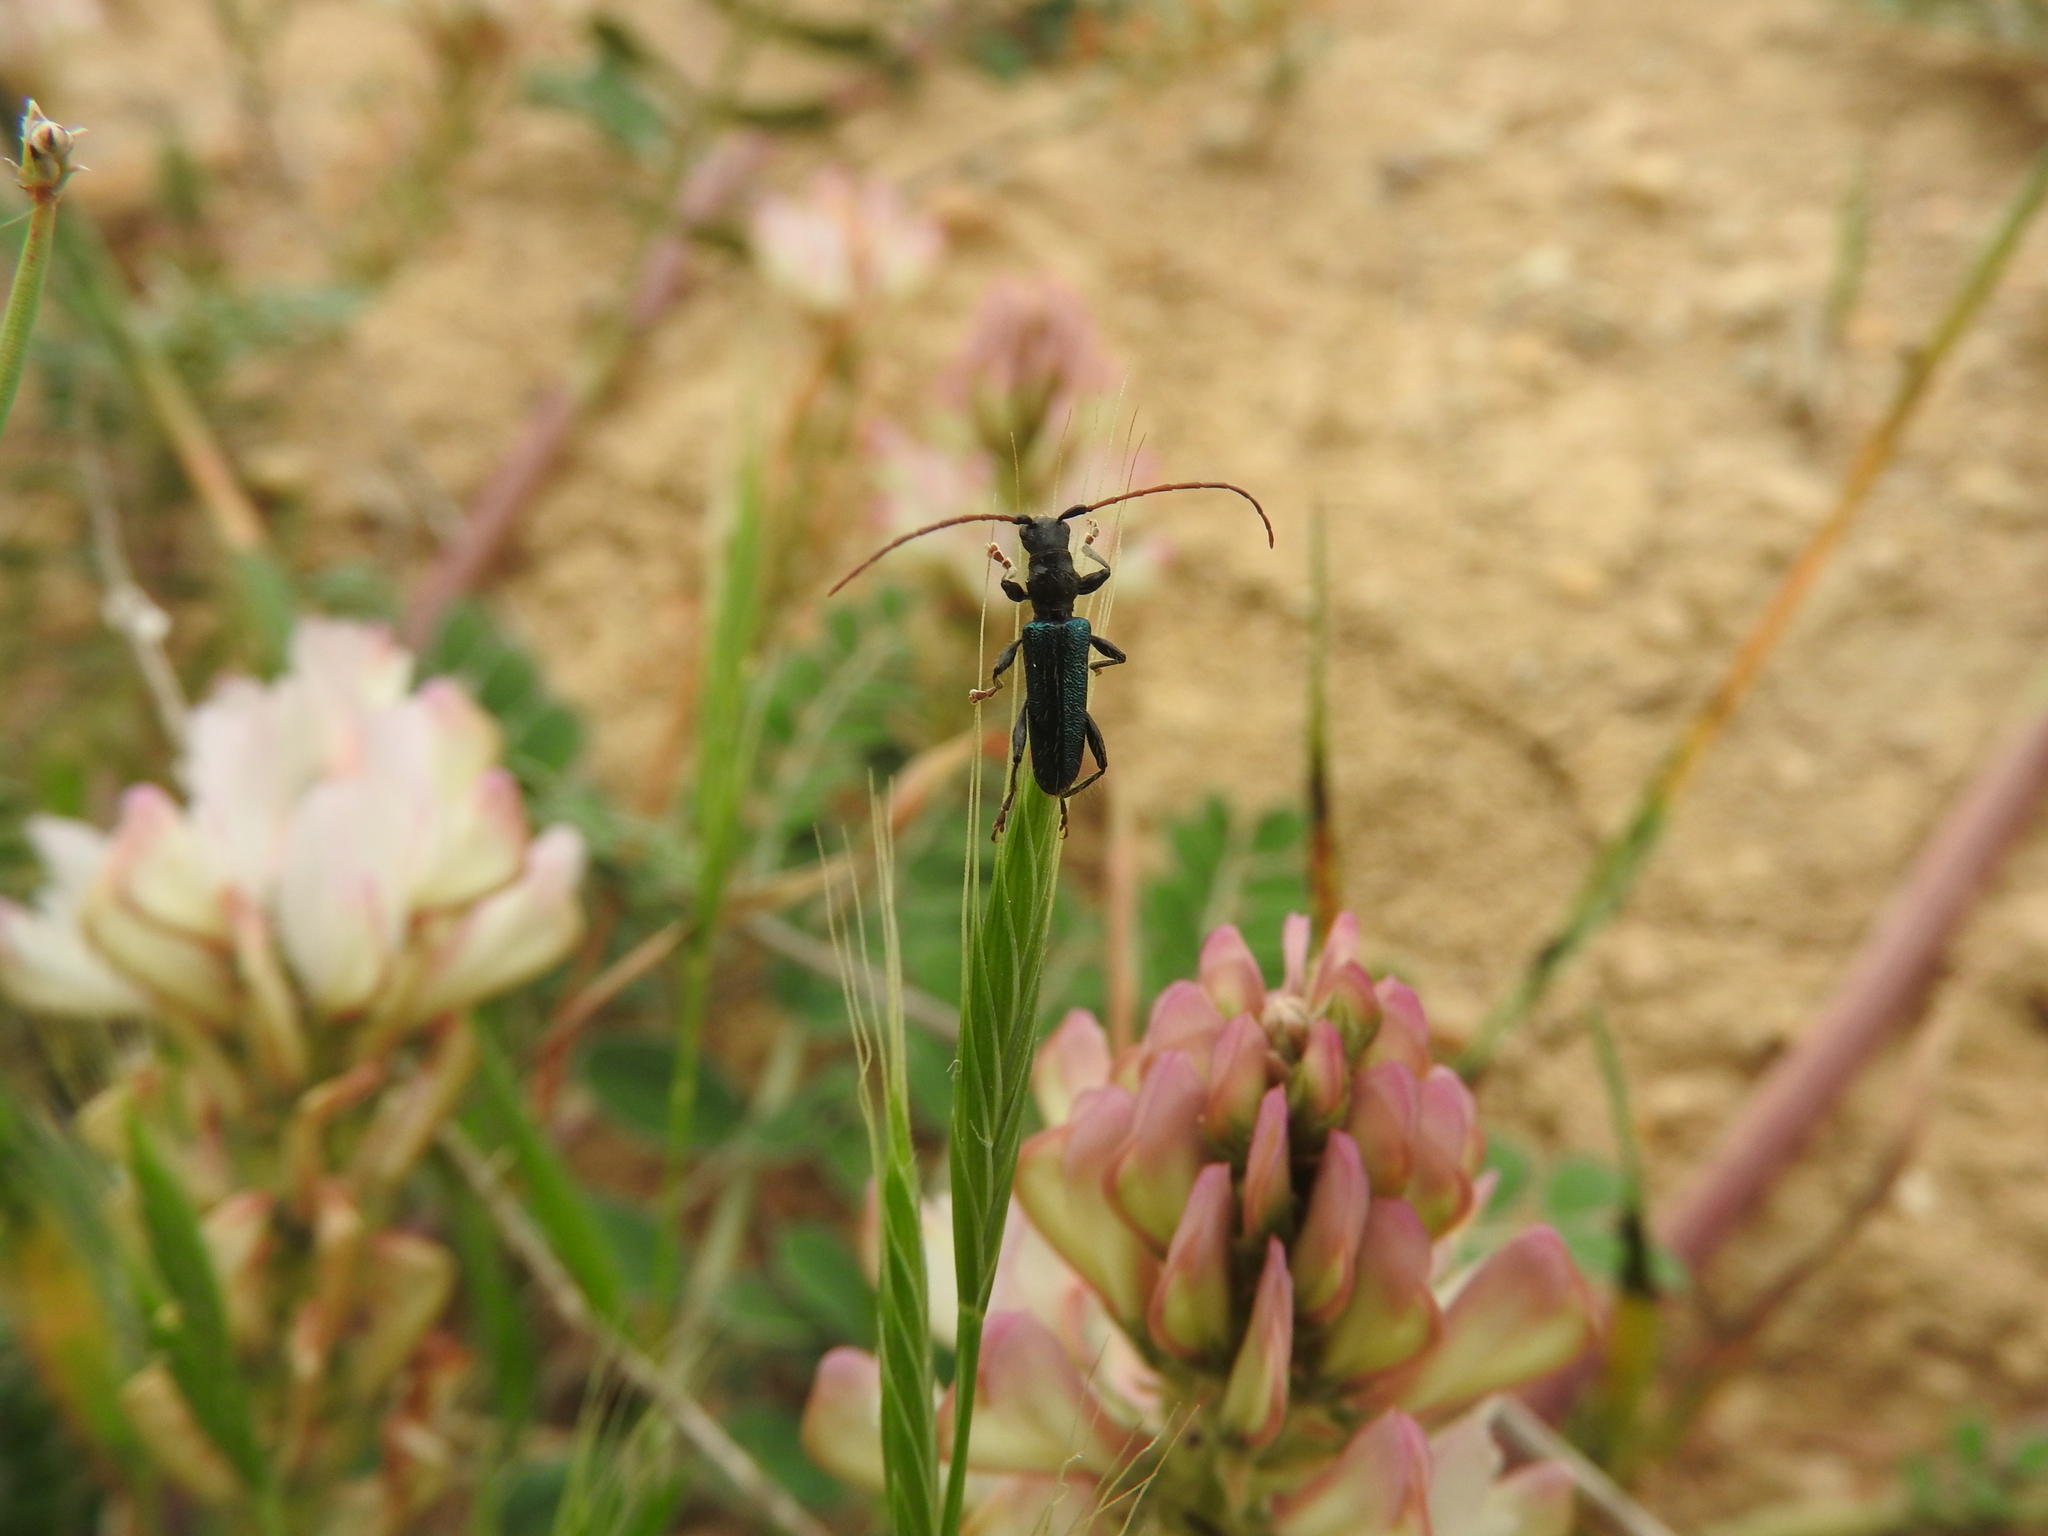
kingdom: Animalia
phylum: Arthropoda
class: Insecta
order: Coleoptera
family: Cerambycidae
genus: Certallum
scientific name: Certallum ebulinum
